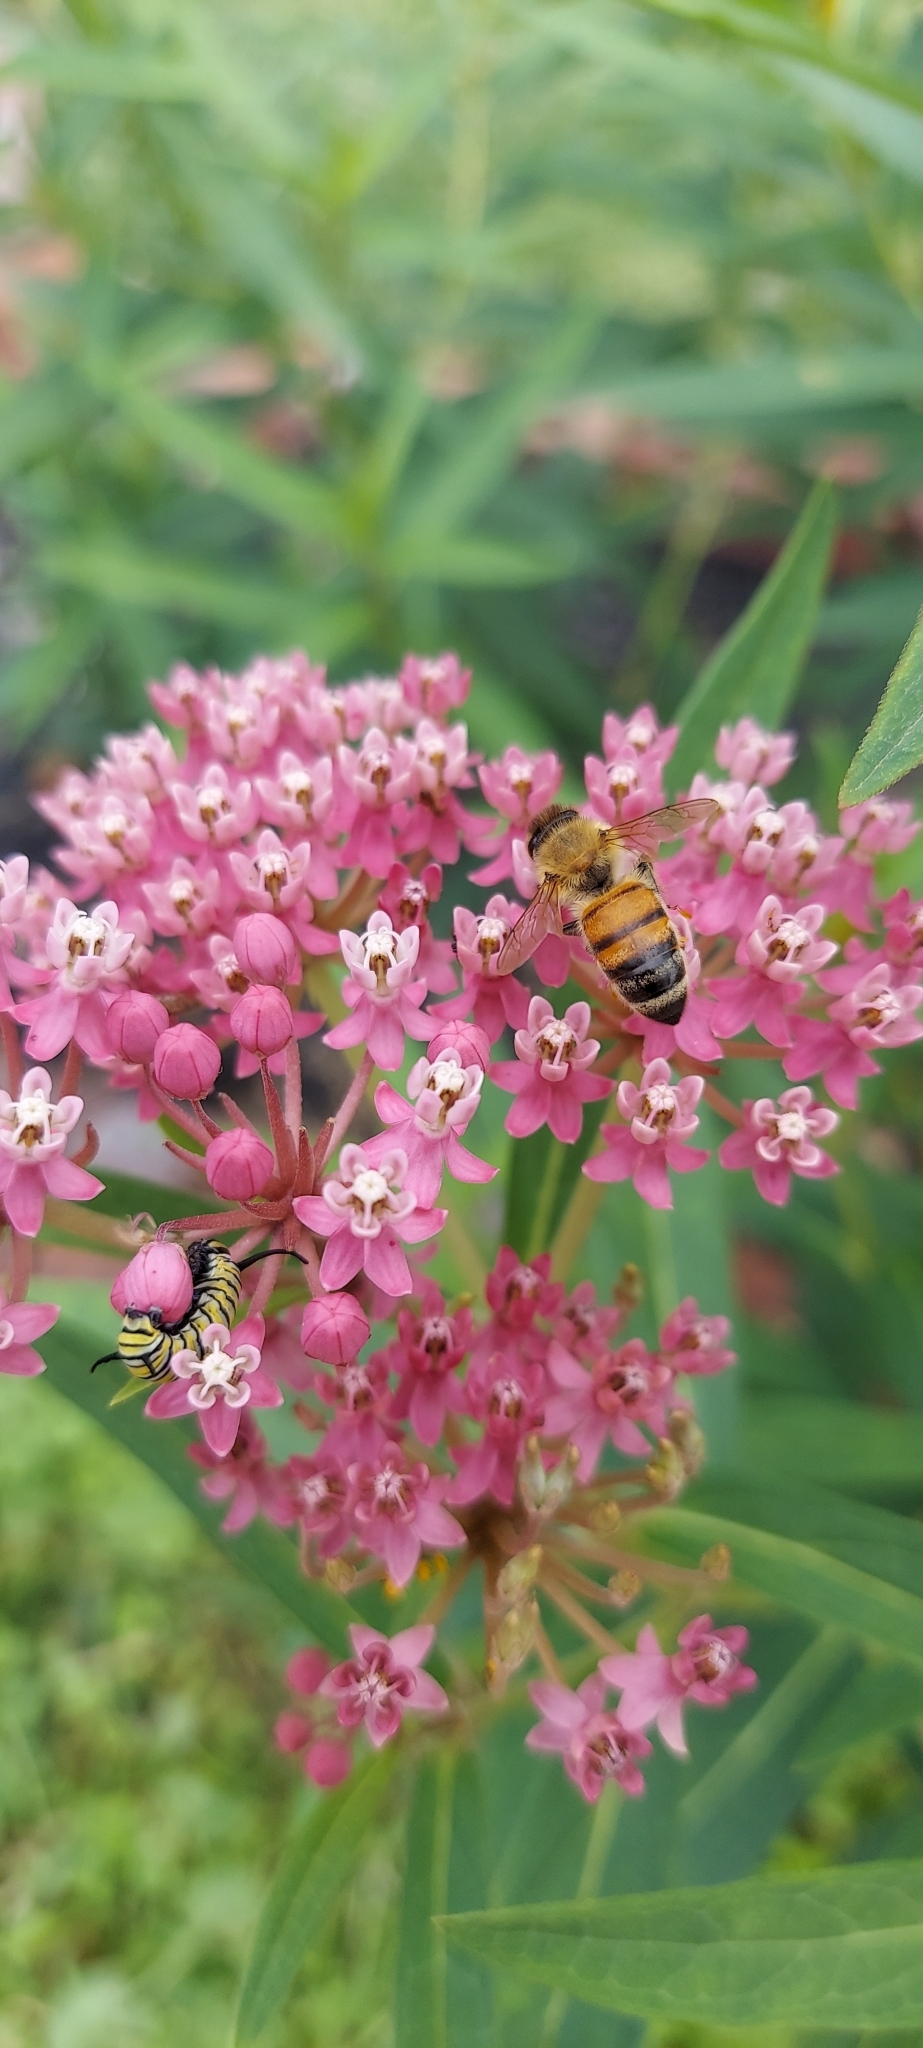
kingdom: Animalia
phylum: Arthropoda
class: Insecta
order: Hymenoptera
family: Apidae
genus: Apis
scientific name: Apis mellifera
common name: Honey bee
